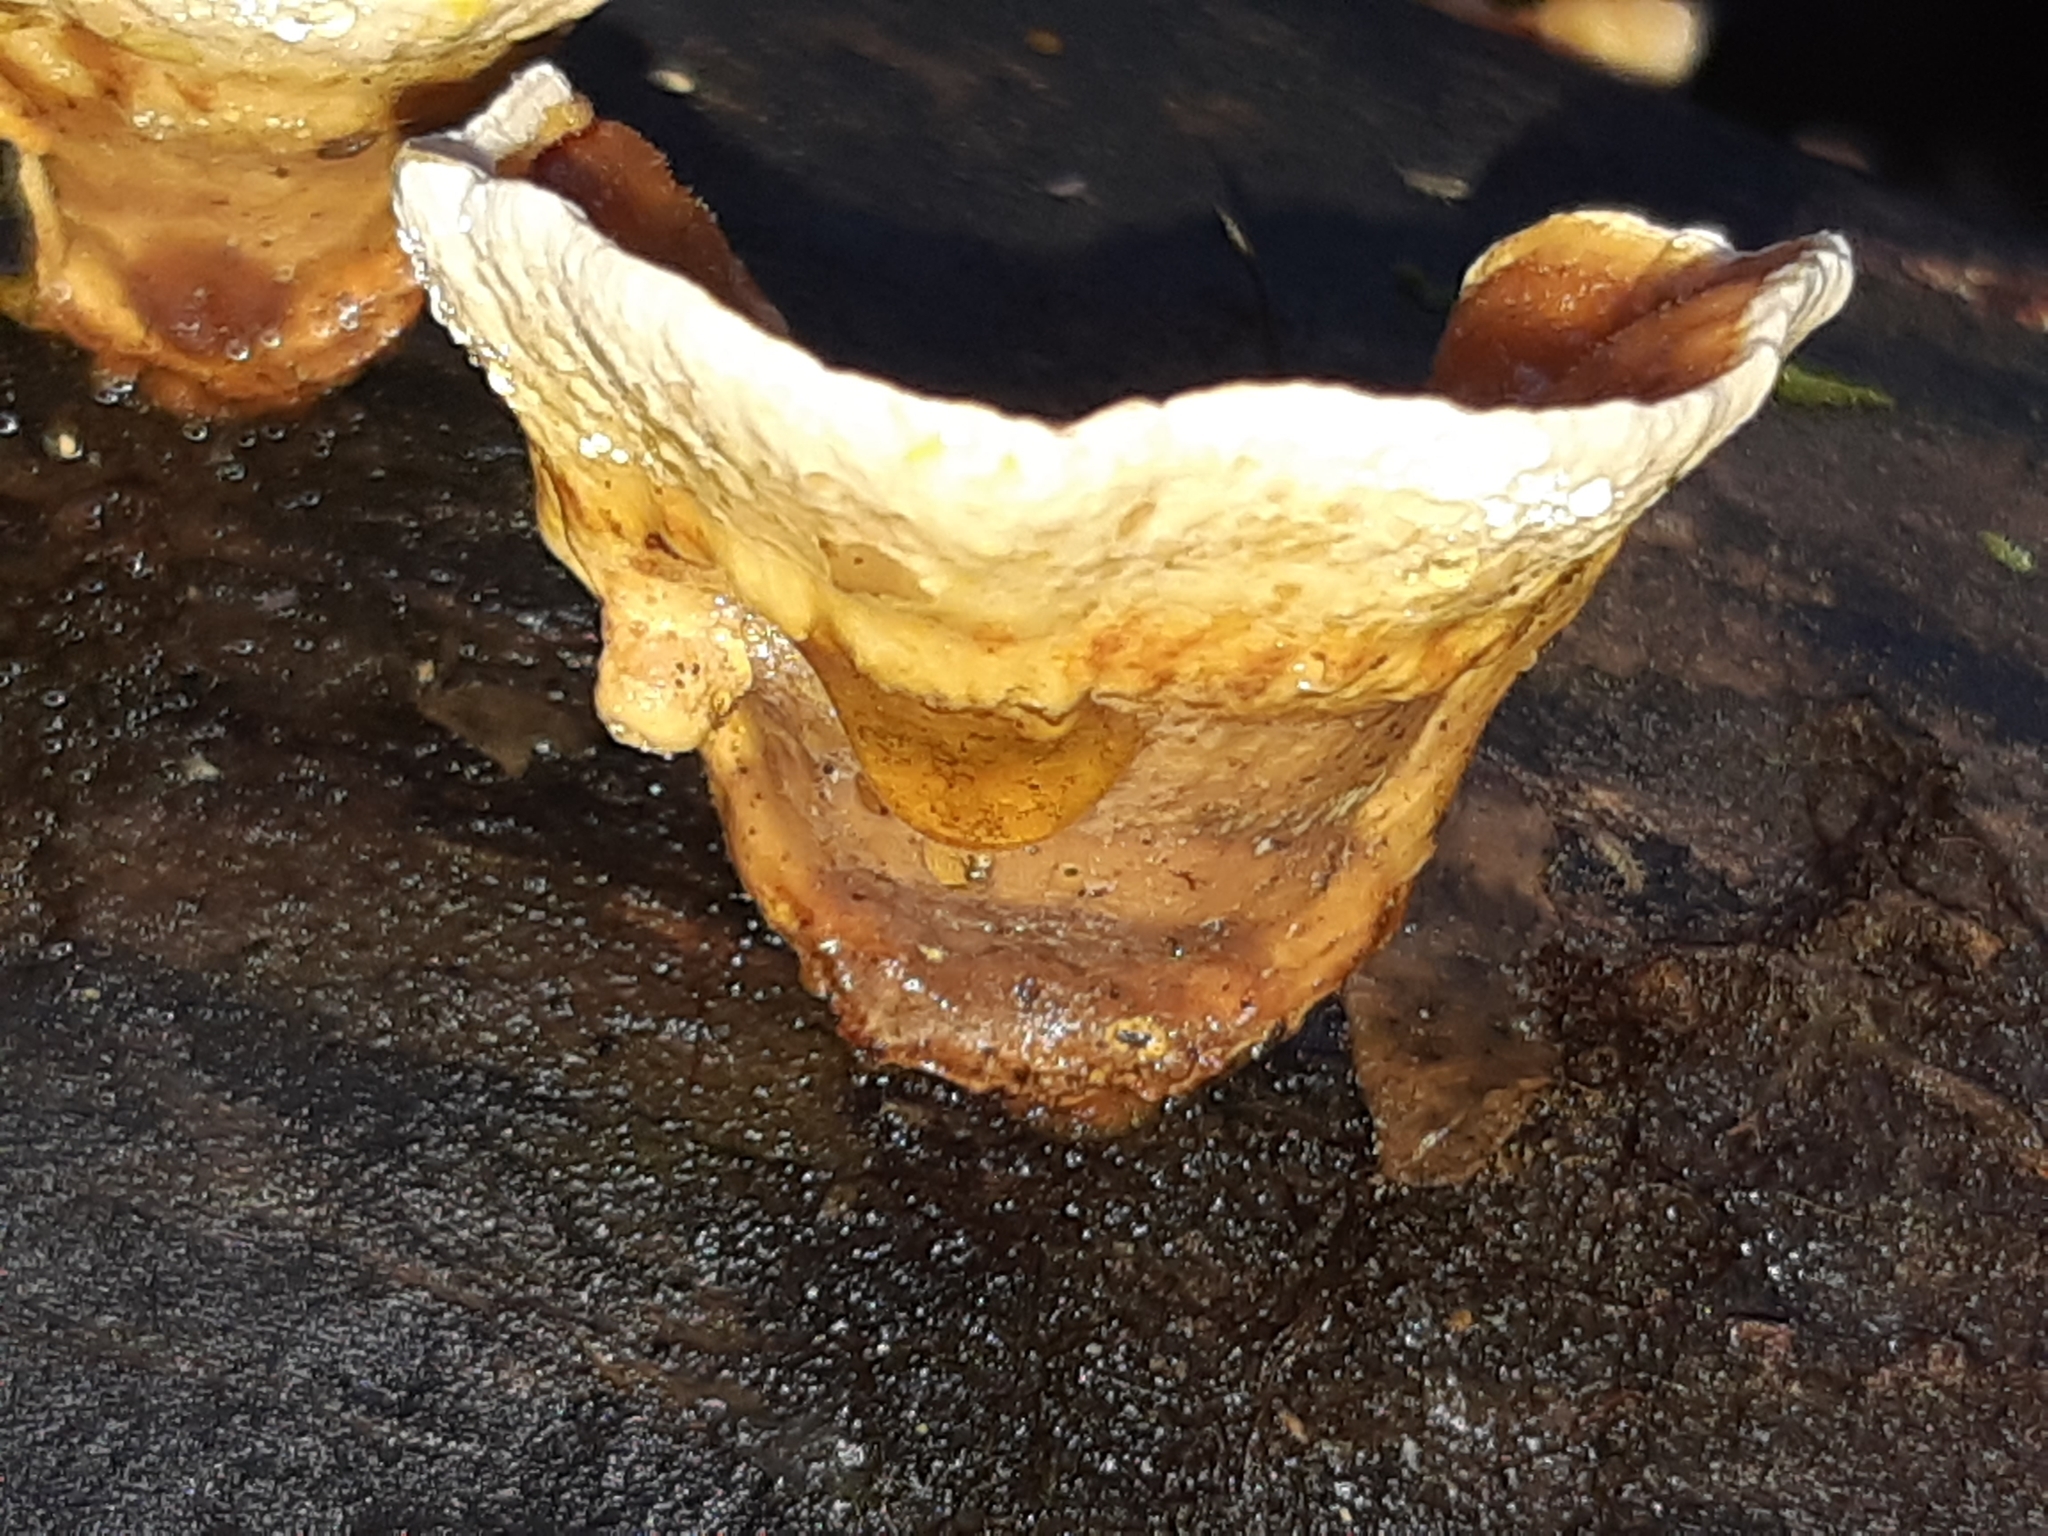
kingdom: Fungi
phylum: Basidiomycota
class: Agaricomycetes
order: Russulales
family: Stereaceae
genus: Stereum
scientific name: Stereum versicolor
